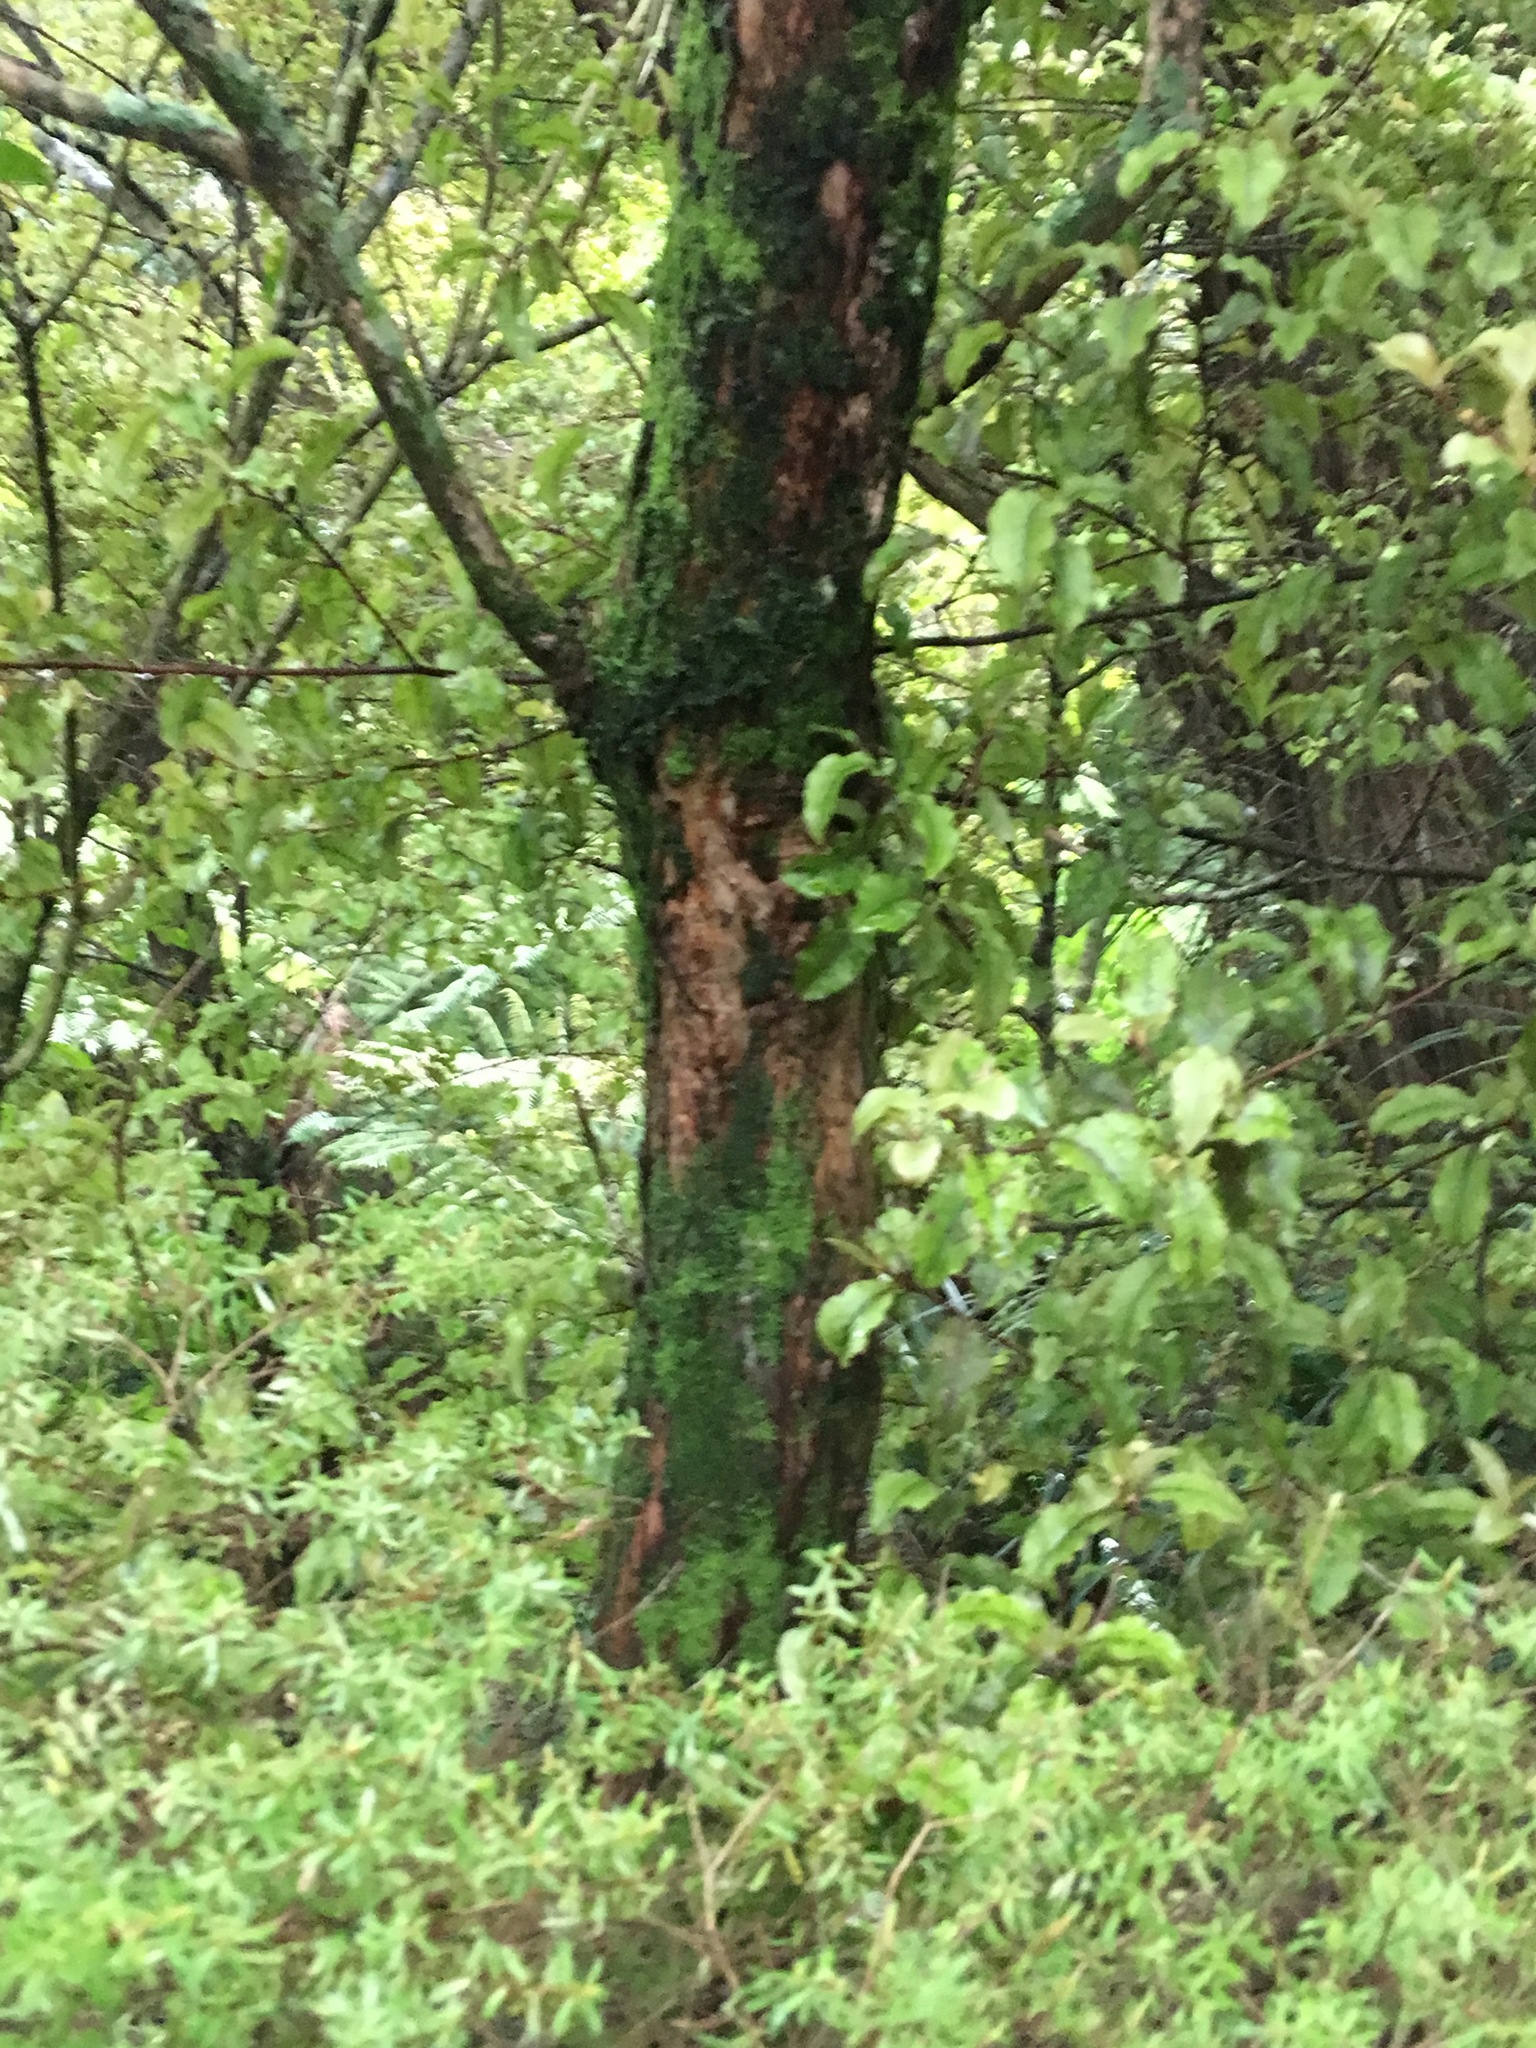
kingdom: Plantae
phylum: Tracheophyta
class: Magnoliopsida
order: Ericales
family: Primulaceae
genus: Myrsine
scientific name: Myrsine australis
